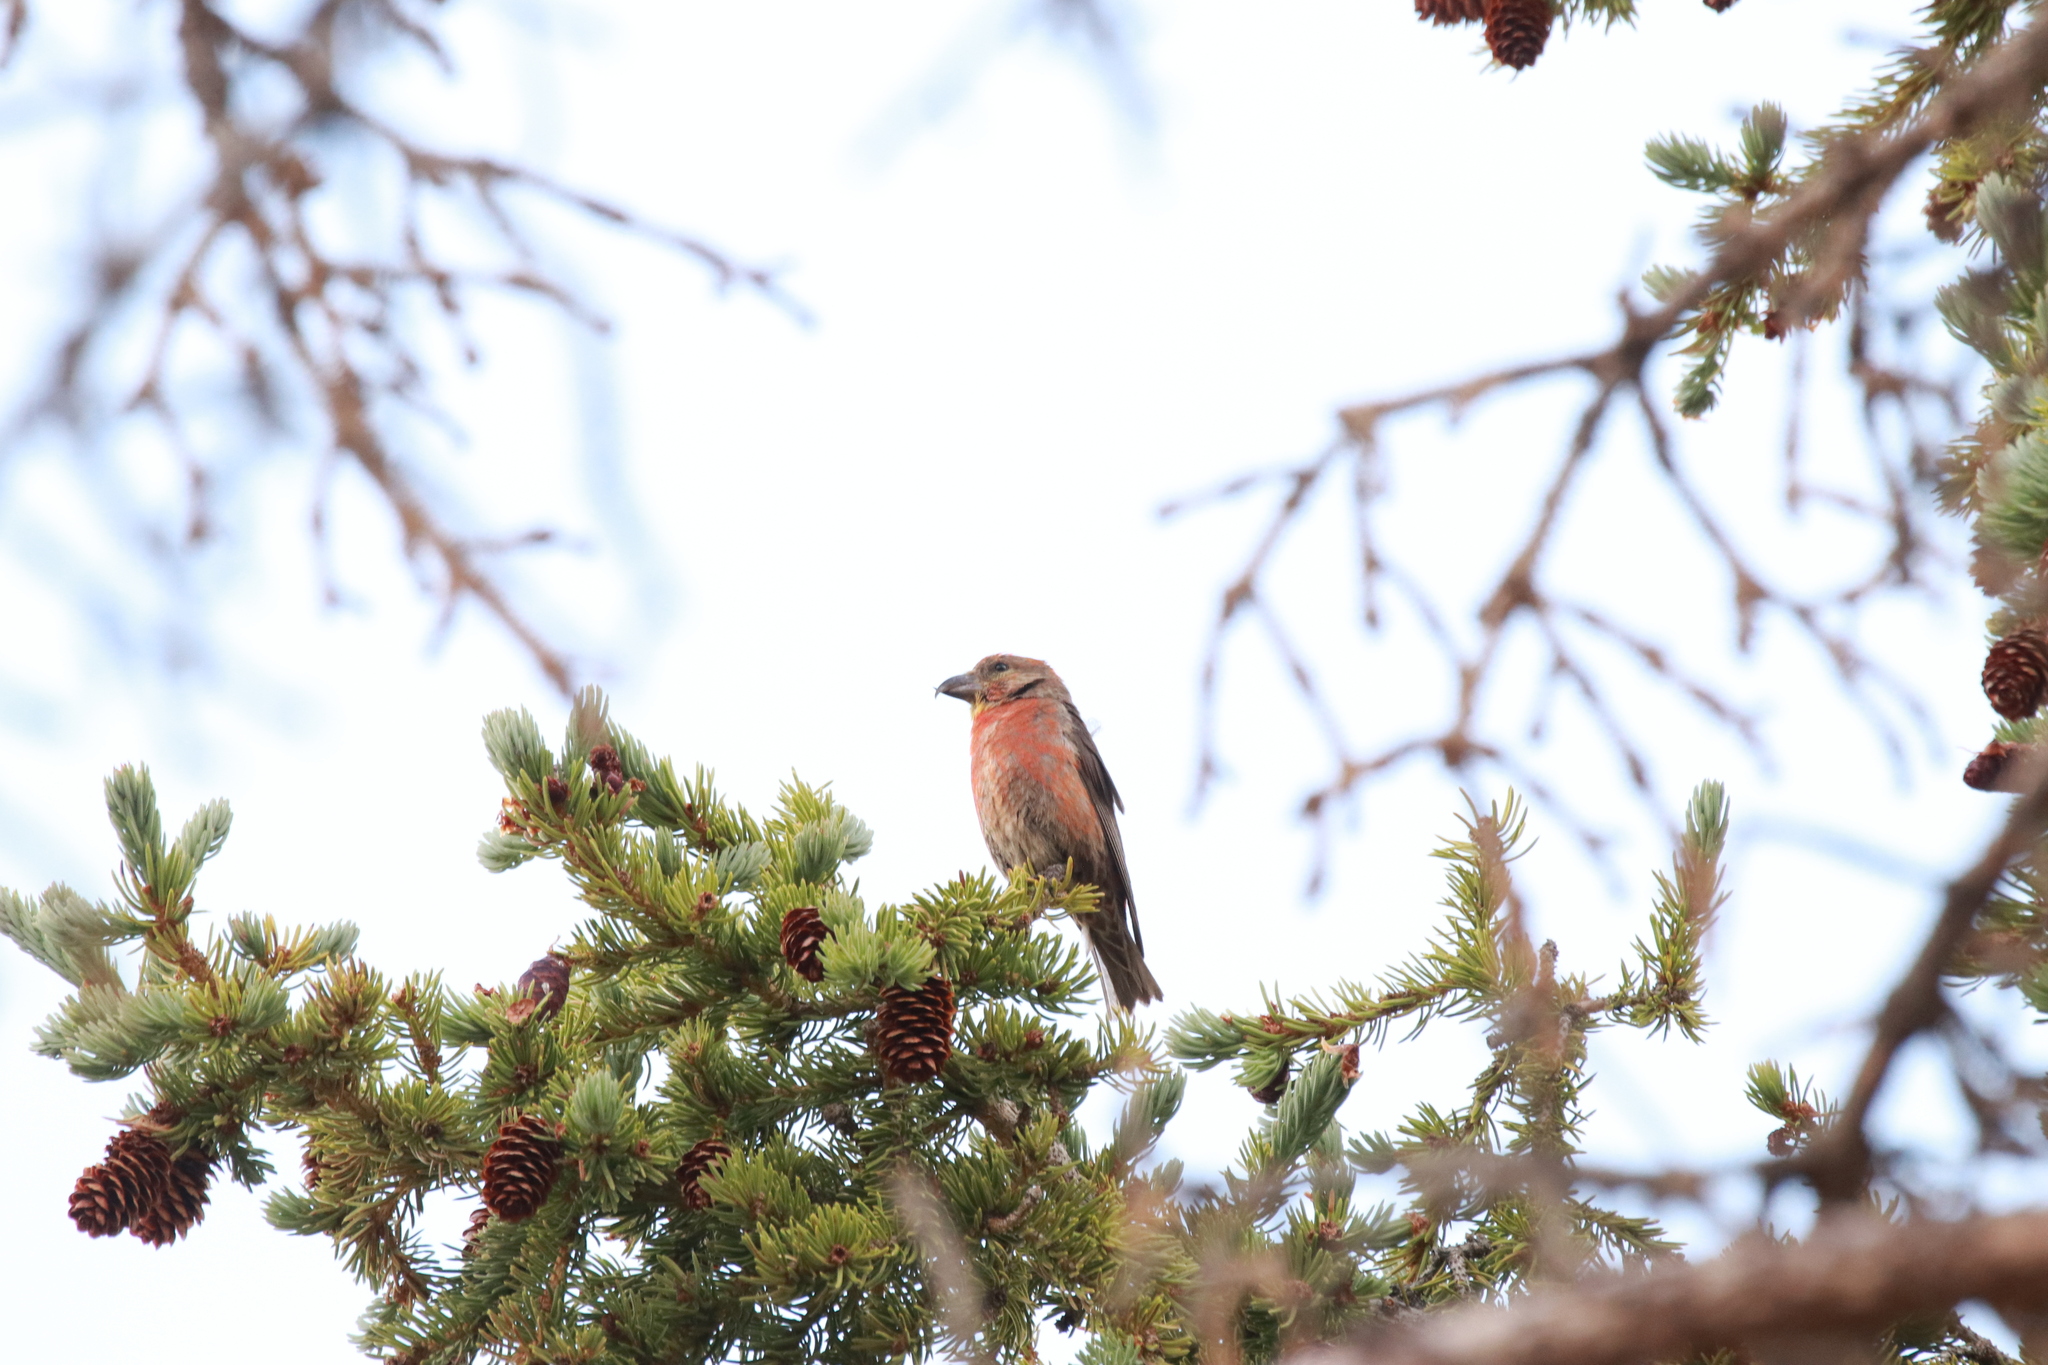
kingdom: Animalia
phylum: Chordata
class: Aves
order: Passeriformes
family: Fringillidae
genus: Loxia
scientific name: Loxia curvirostra
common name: Red crossbill
